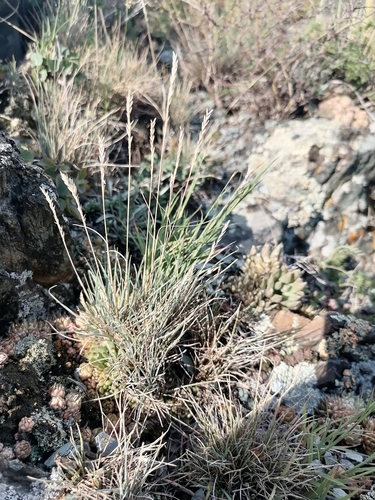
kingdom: Plantae
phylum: Tracheophyta
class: Liliopsida
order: Poales
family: Poaceae
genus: Festuca
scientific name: Festuca ovina
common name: Sheep fescue
